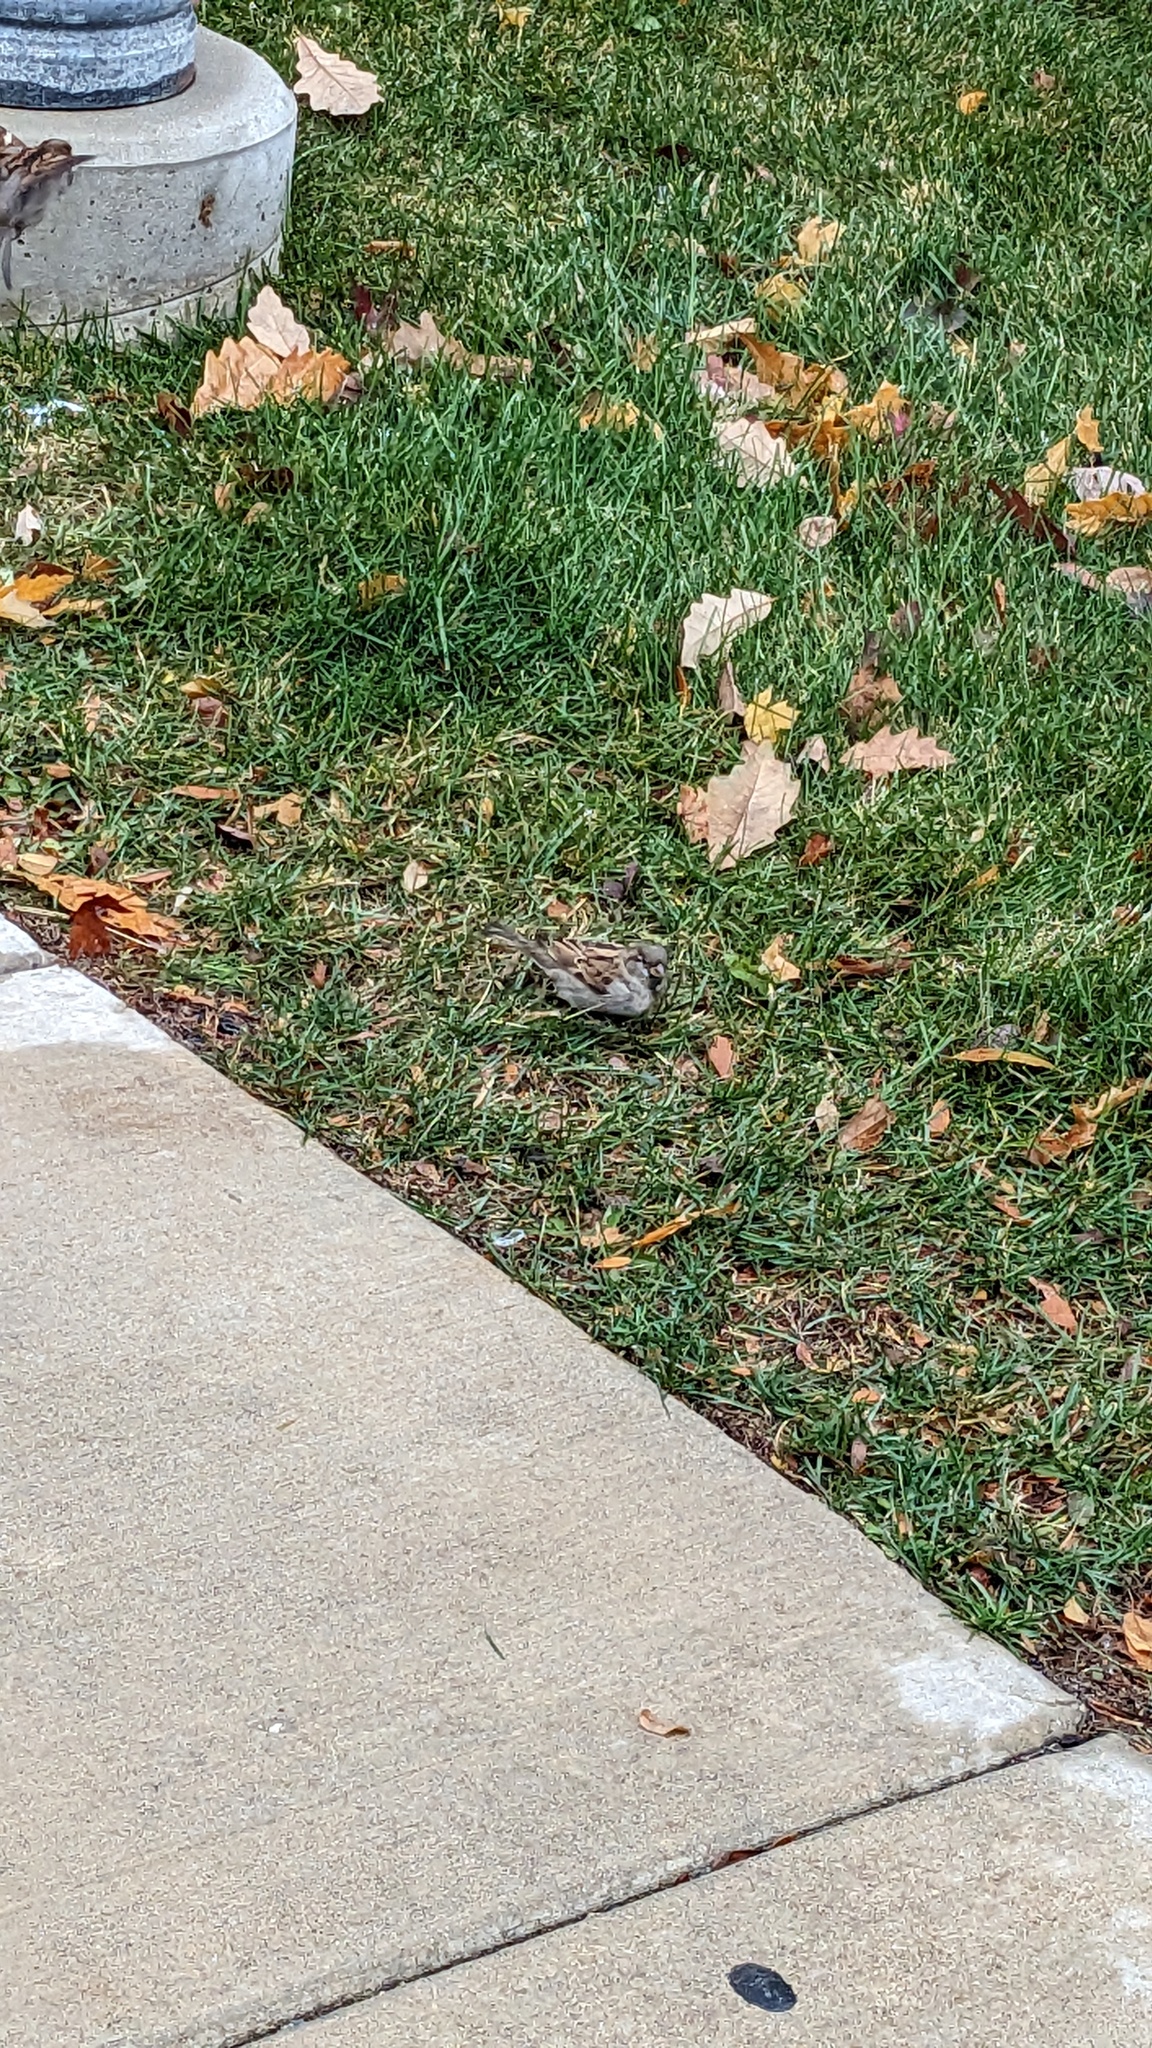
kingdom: Animalia
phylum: Chordata
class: Aves
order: Passeriformes
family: Passeridae
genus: Passer
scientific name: Passer domesticus
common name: House sparrow
